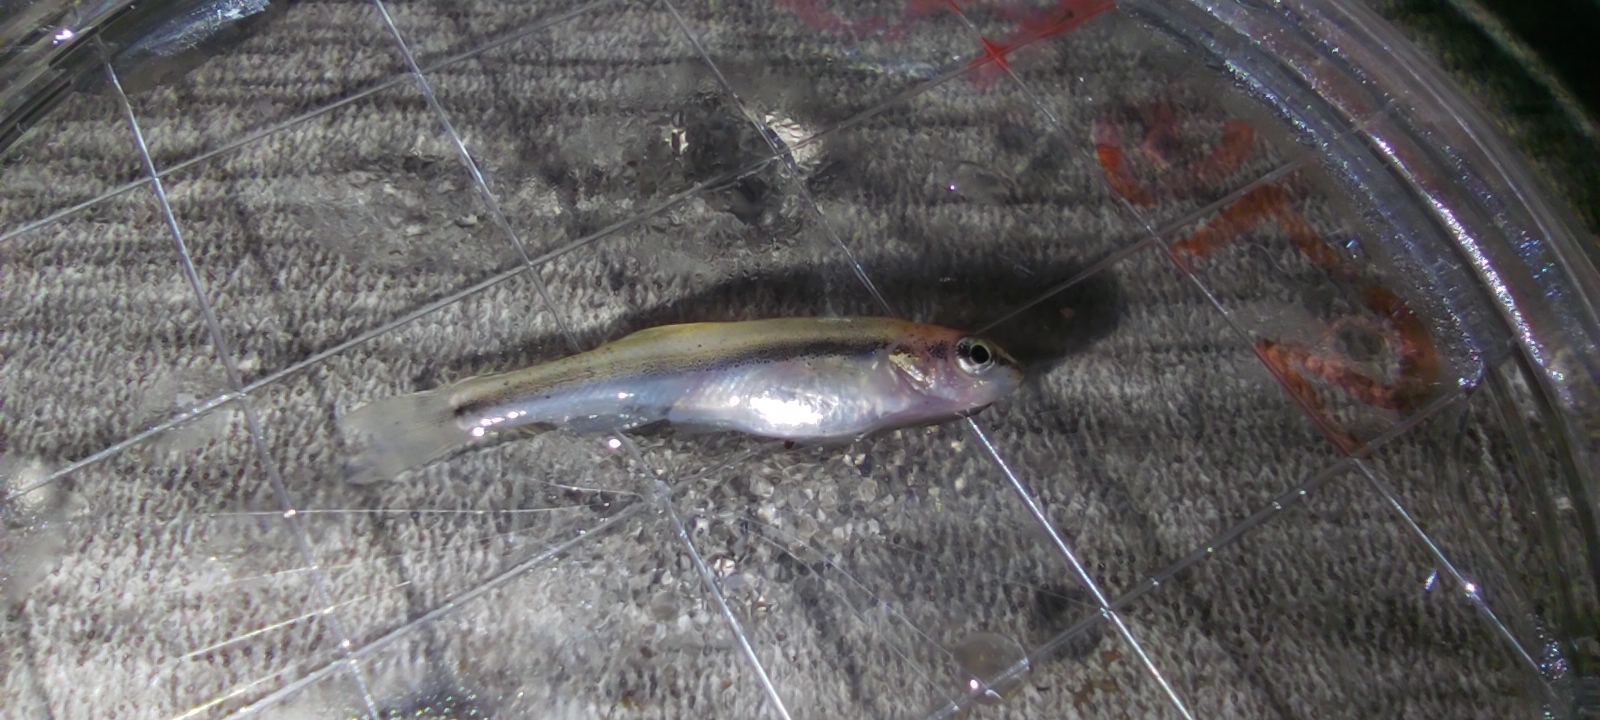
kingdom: Animalia
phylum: Chordata
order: Cypriniformes
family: Cyprinidae
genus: Rhinichthys
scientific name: Rhinichthys atratulus
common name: Eastern blacknose dace
